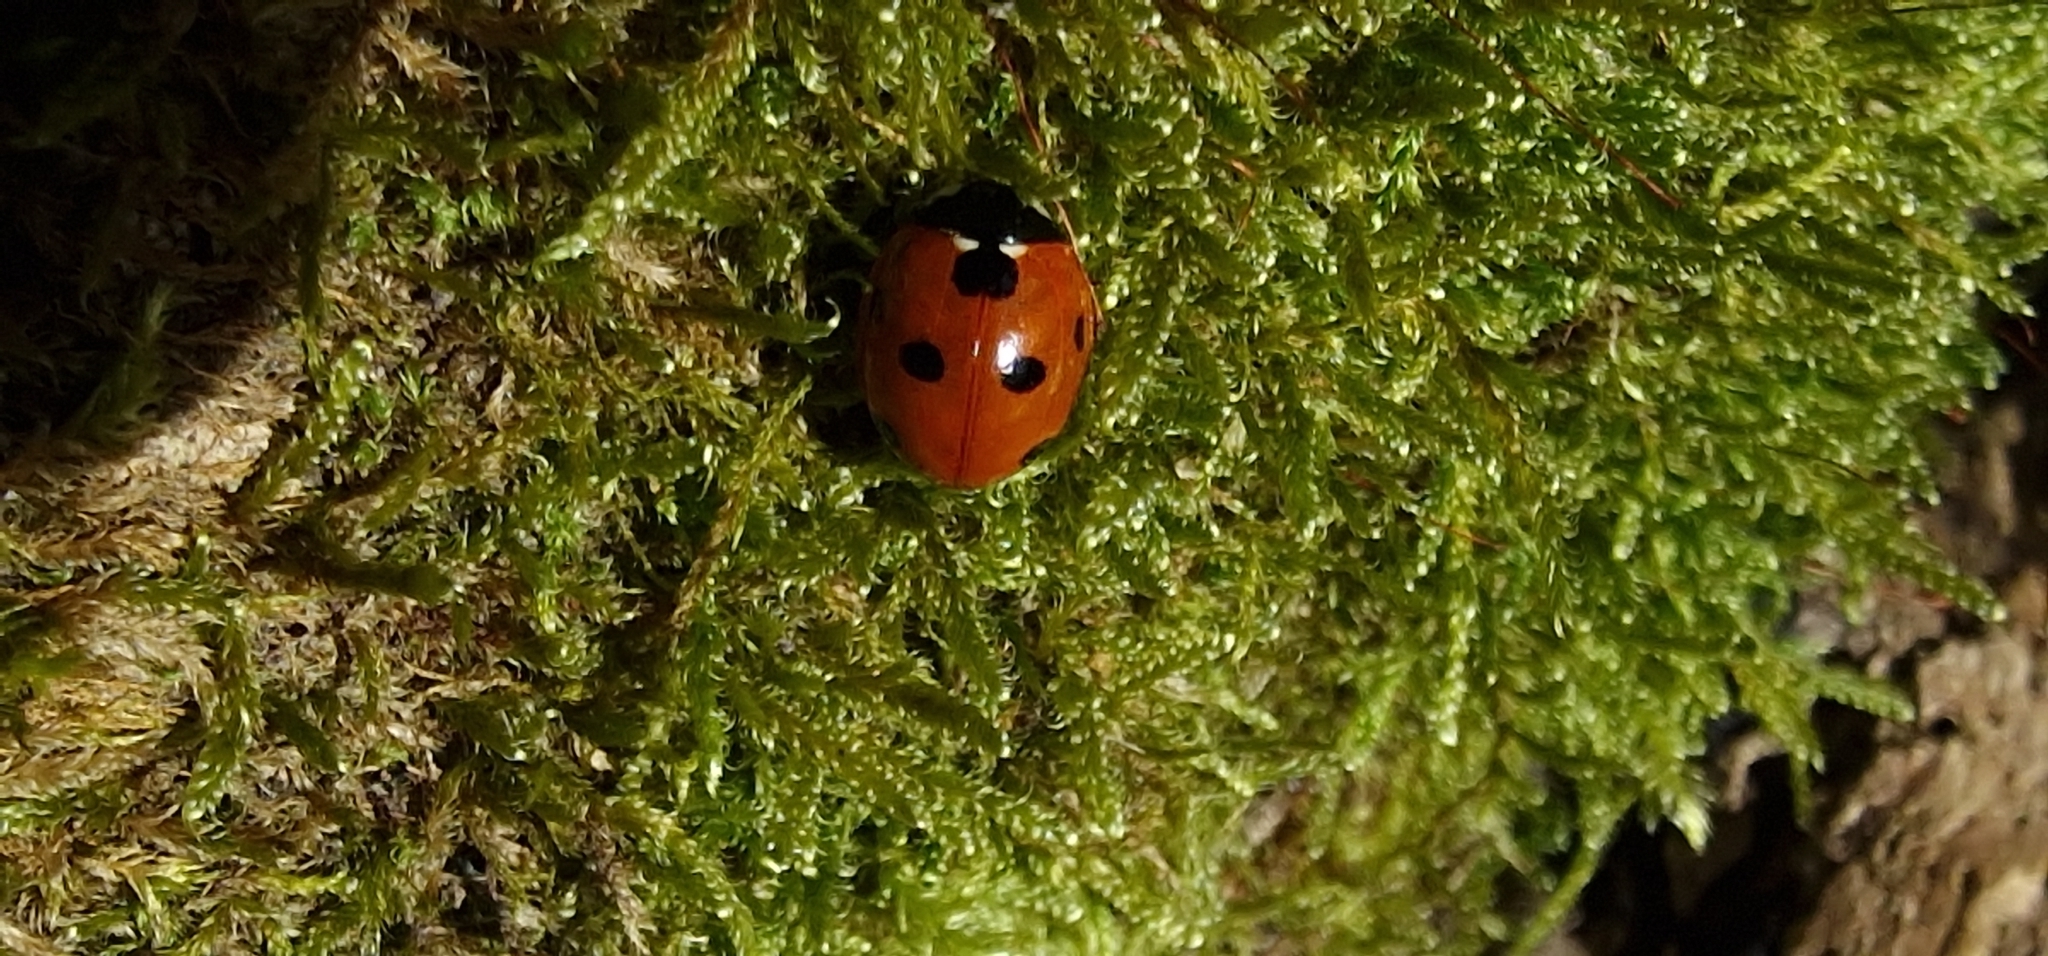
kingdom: Animalia
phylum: Arthropoda
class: Insecta
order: Coleoptera
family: Coccinellidae
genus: Coccinella
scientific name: Coccinella septempunctata
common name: Sevenspotted lady beetle
